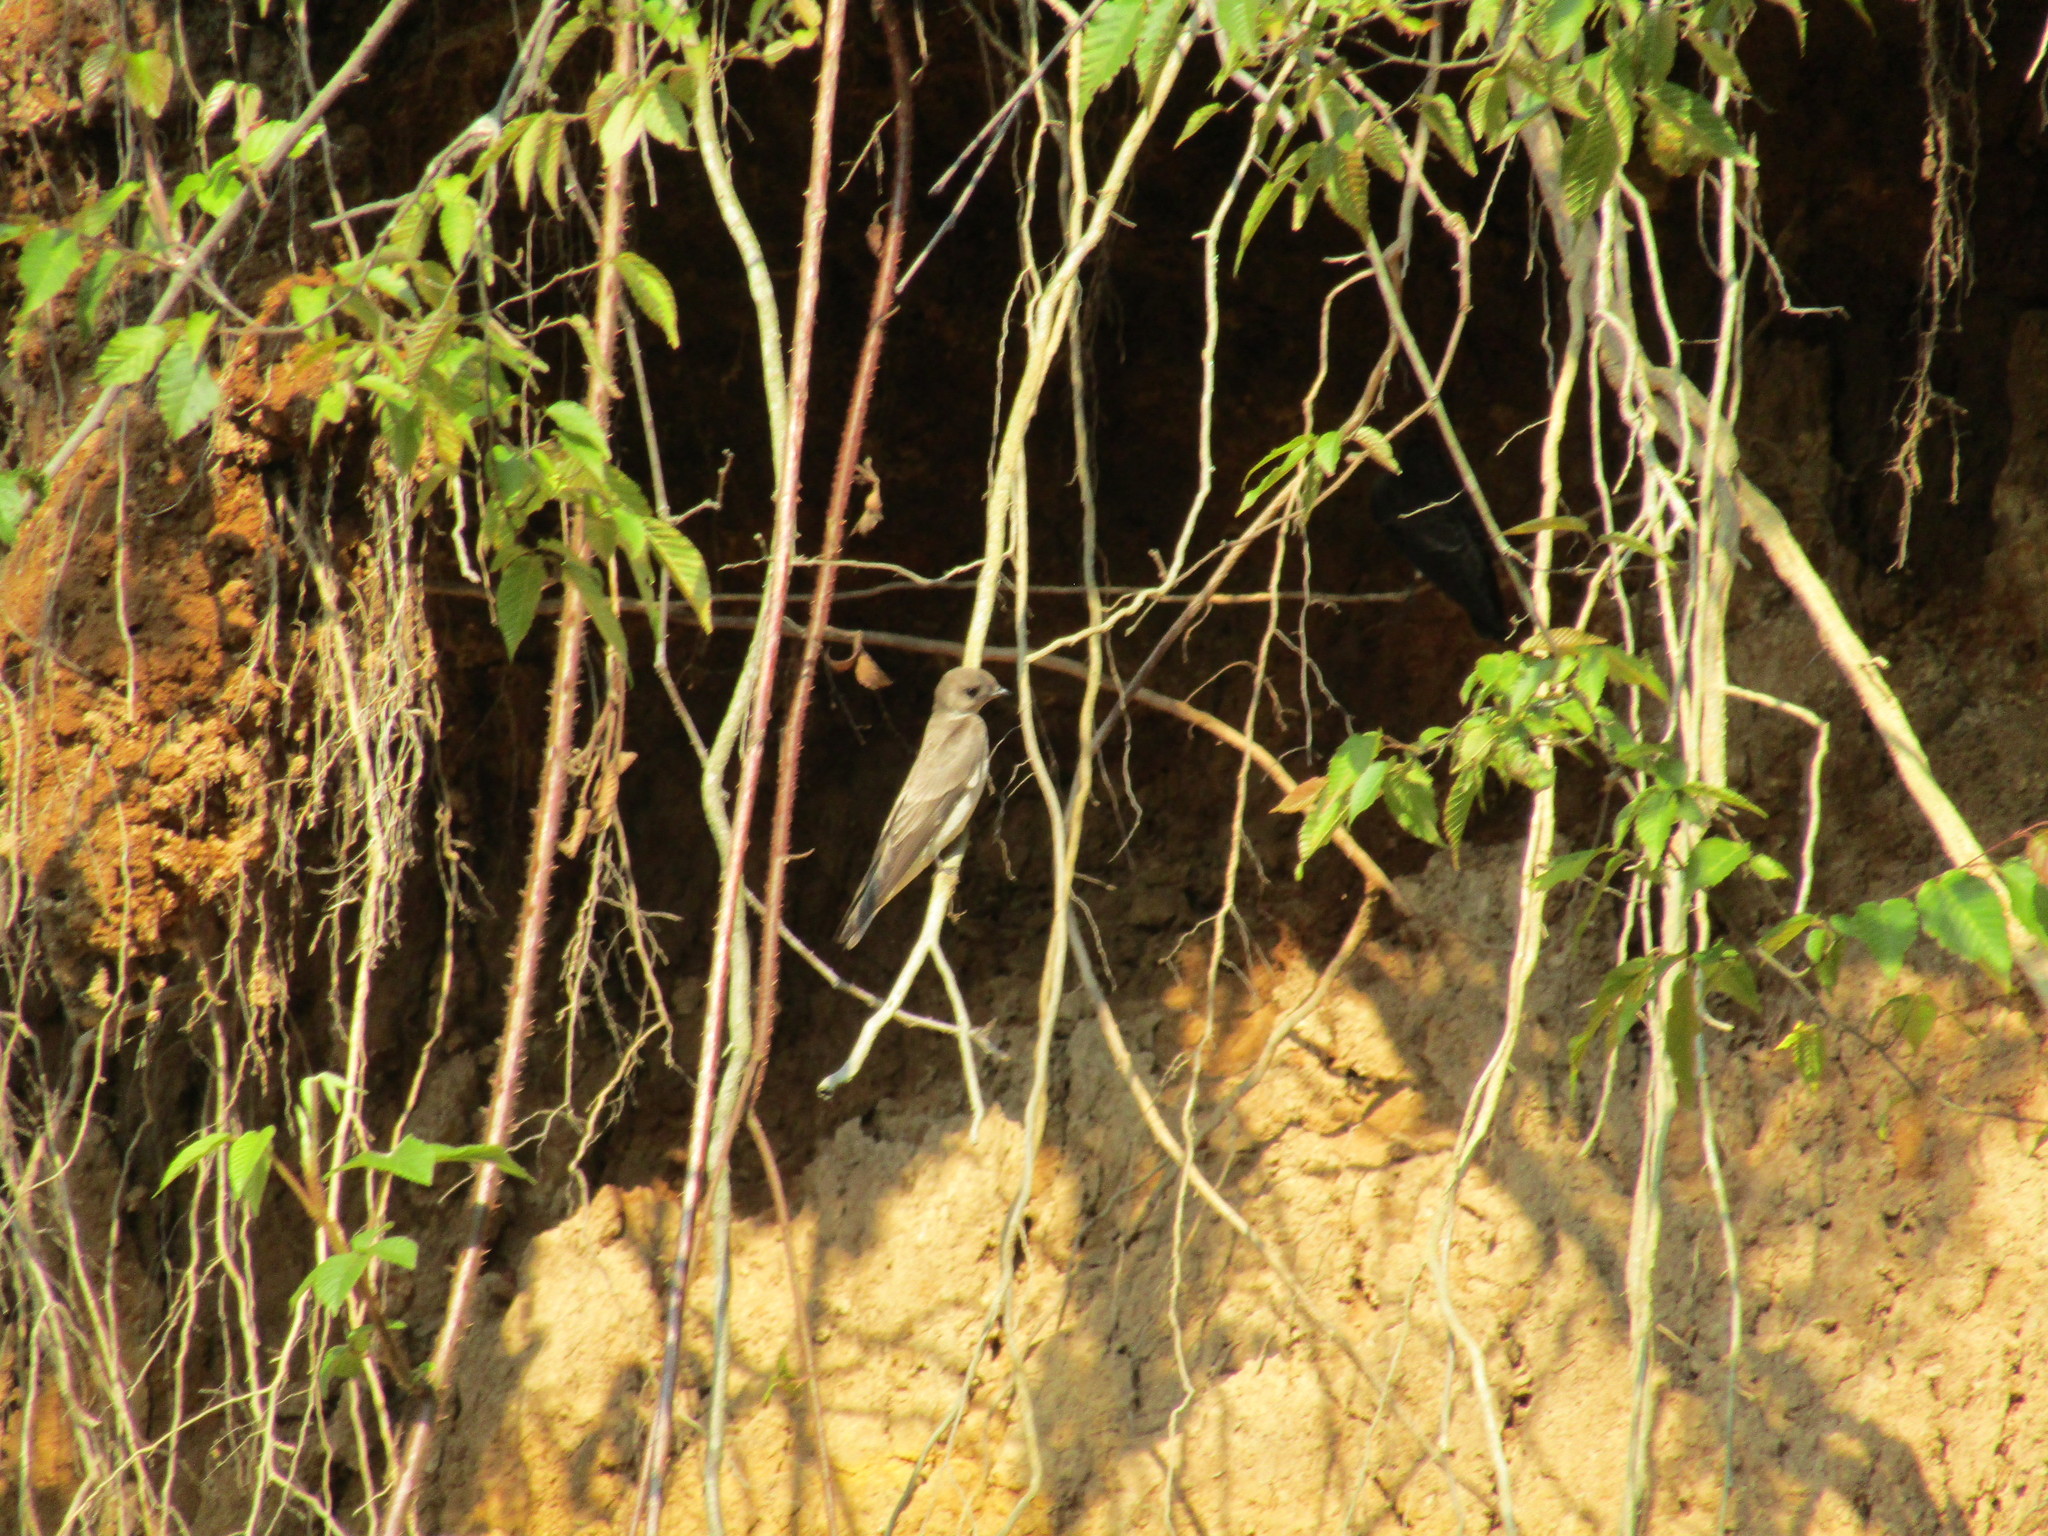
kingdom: Animalia
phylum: Chordata
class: Aves
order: Passeriformes
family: Hirundinidae
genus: Stelgidopteryx
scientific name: Stelgidopteryx serripennis
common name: Northern rough-winged swallow
